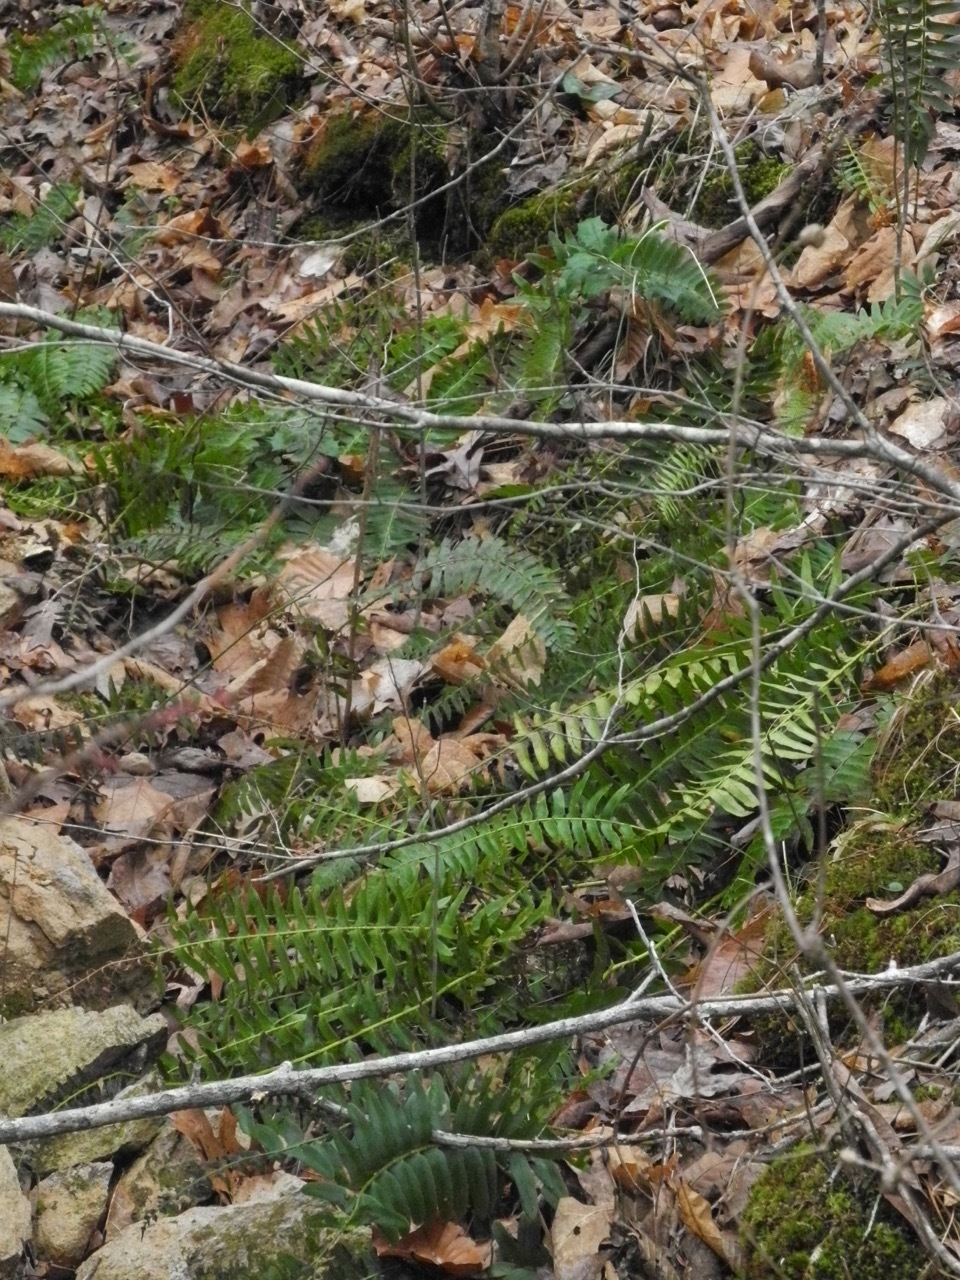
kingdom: Plantae
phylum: Tracheophyta
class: Polypodiopsida
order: Polypodiales
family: Dryopteridaceae
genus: Polystichum
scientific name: Polystichum acrostichoides
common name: Christmas fern
